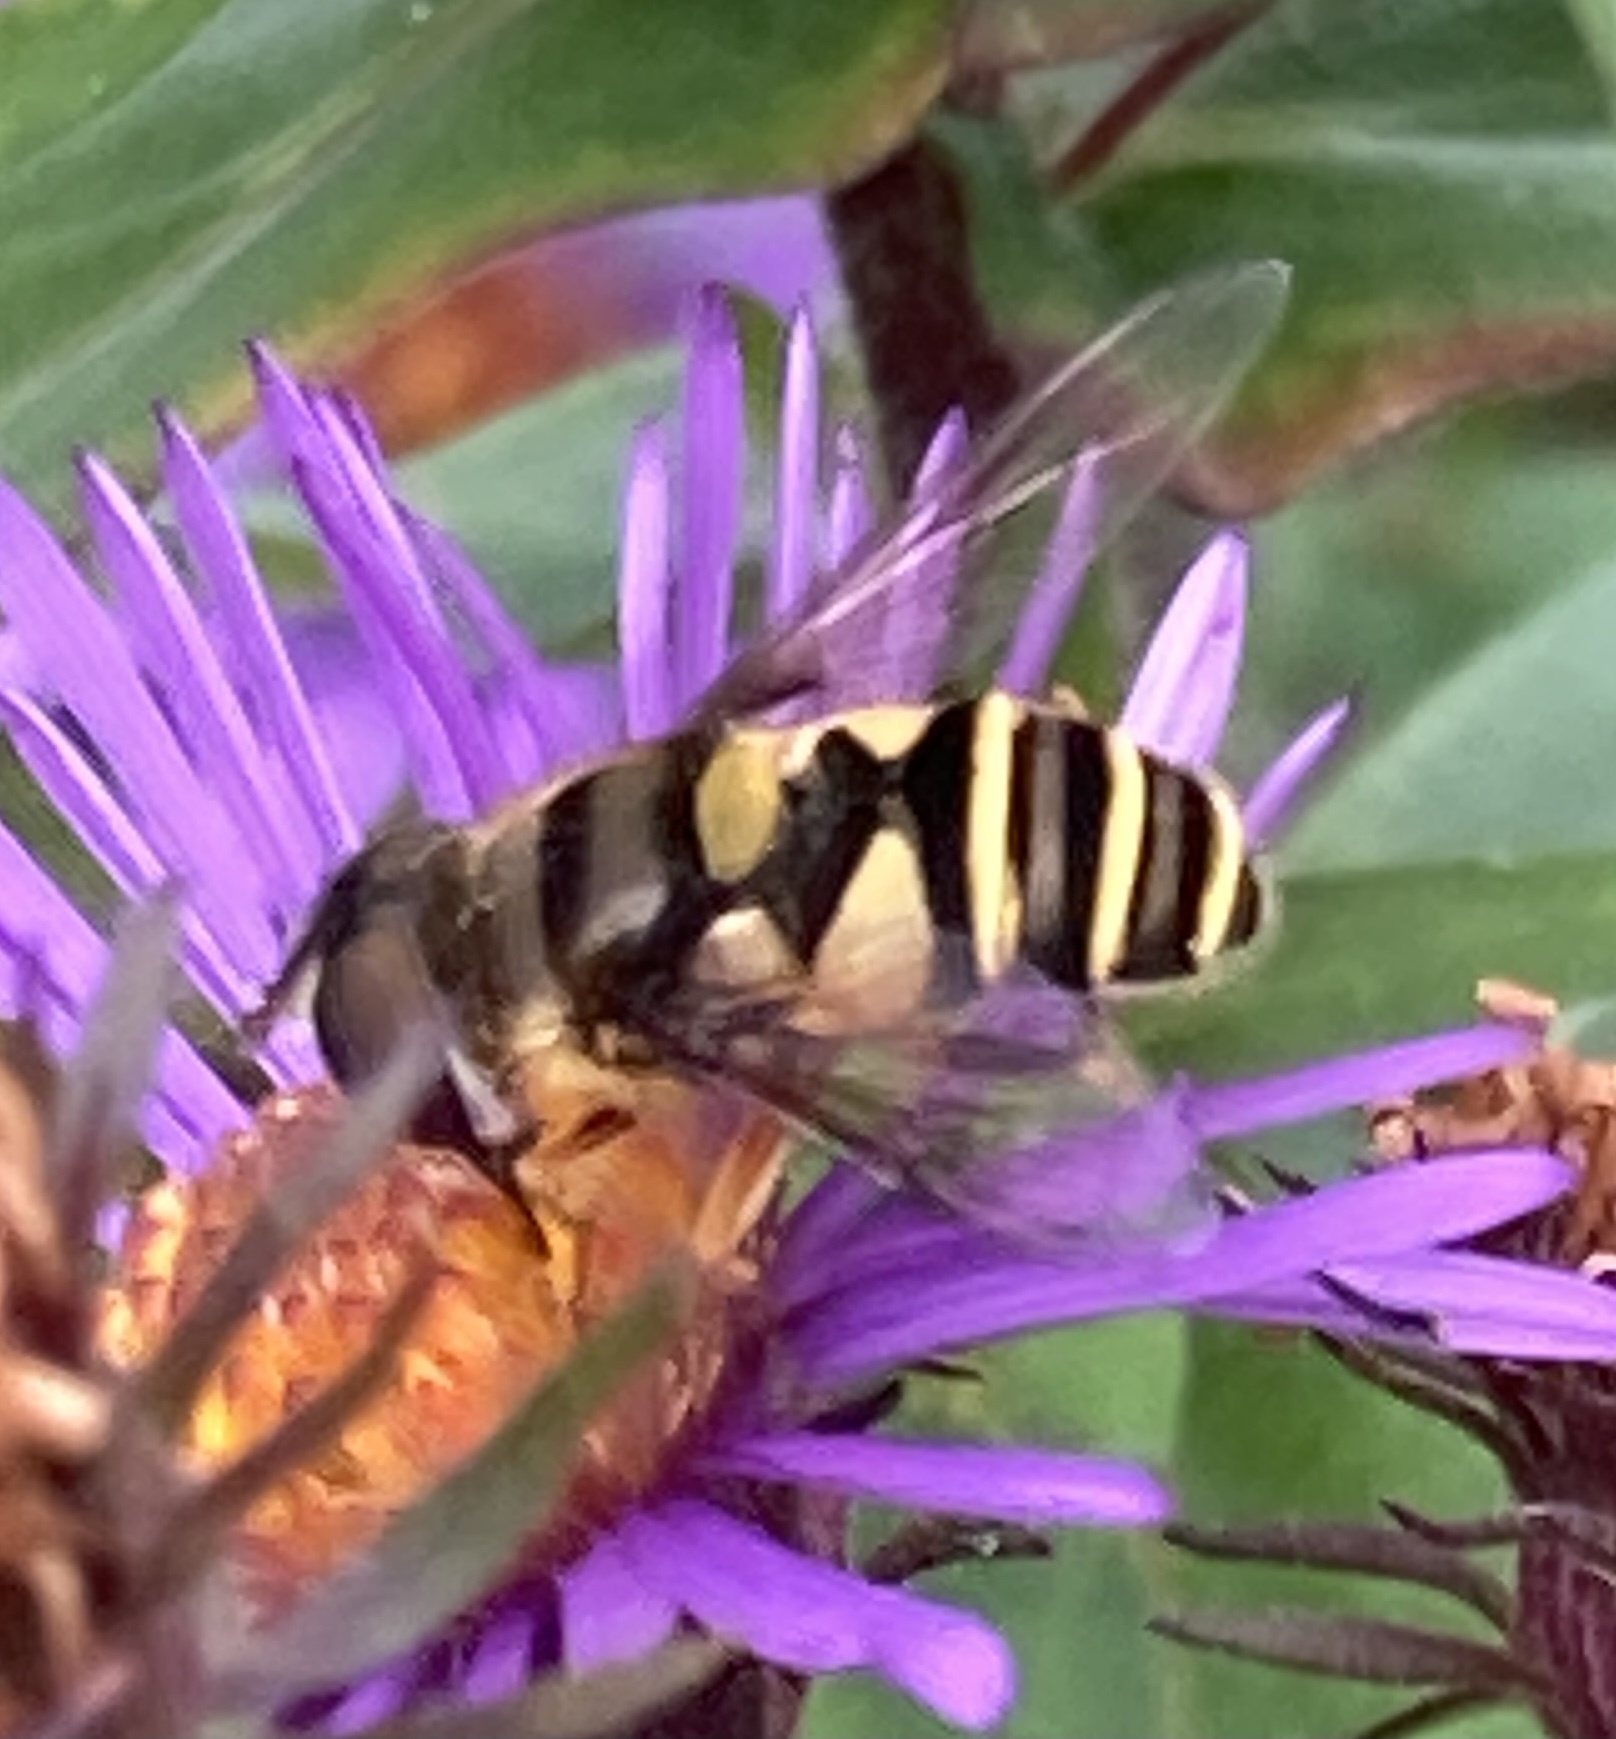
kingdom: Animalia
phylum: Arthropoda
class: Insecta
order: Diptera
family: Syrphidae
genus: Eristalis
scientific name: Eristalis transversa
